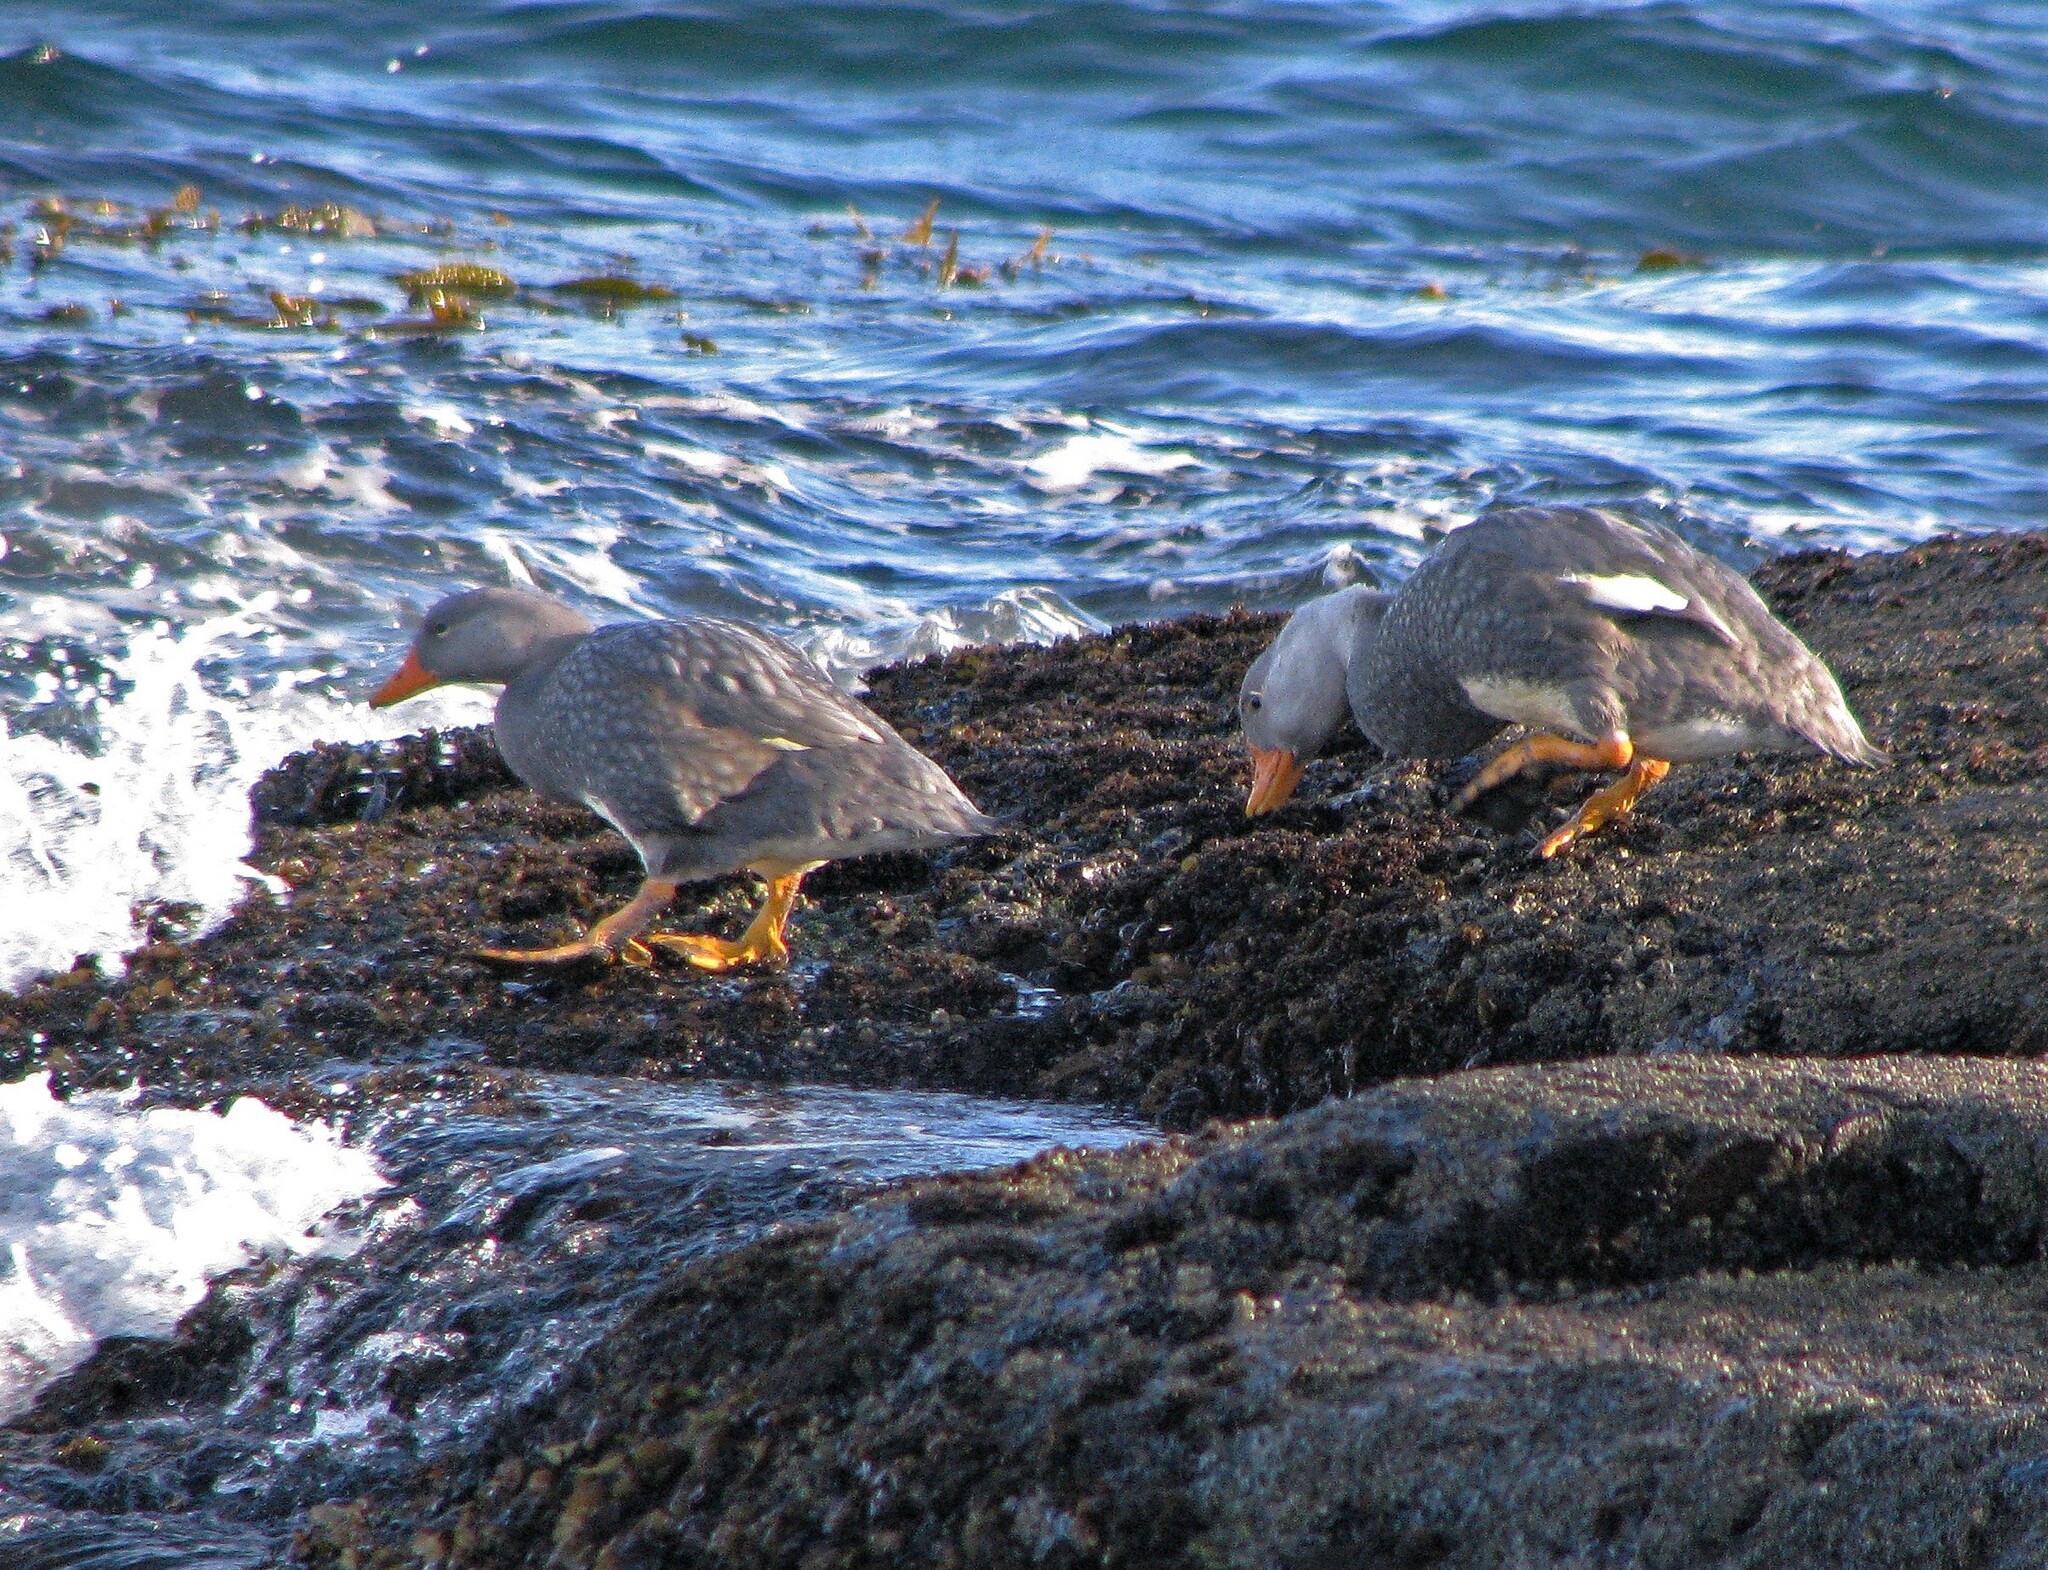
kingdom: Animalia
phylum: Chordata
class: Aves
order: Anseriformes
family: Anatidae
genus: Tachyeres
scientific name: Tachyeres pteneres
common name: Fuegian steamer duck
